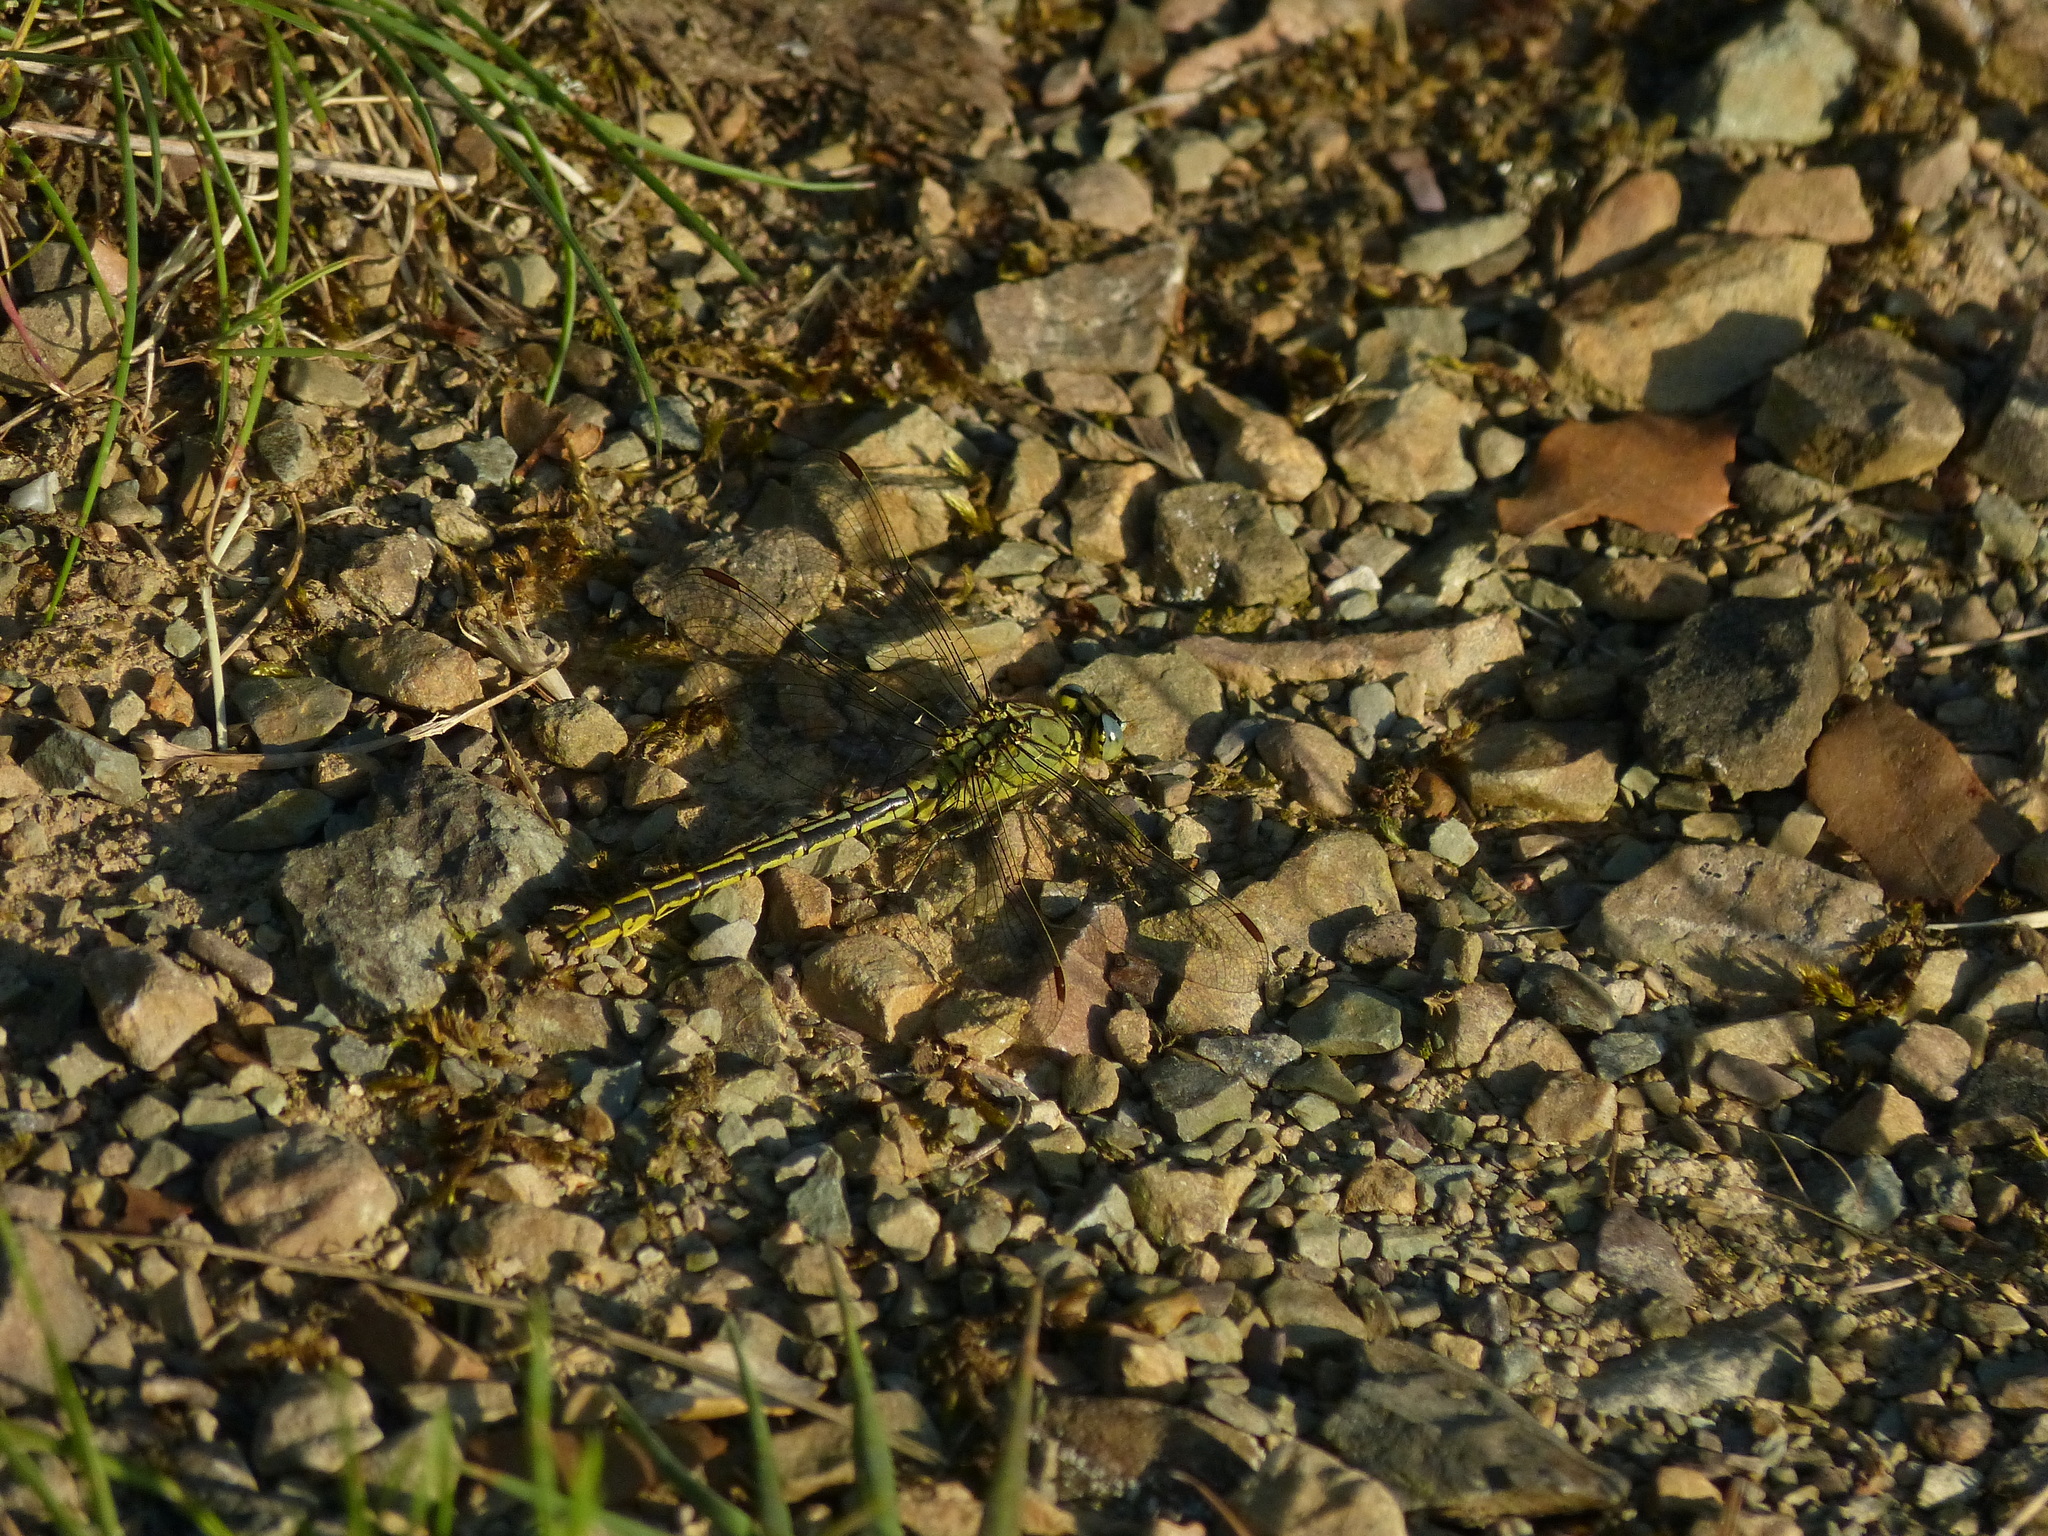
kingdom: Animalia
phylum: Arthropoda
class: Insecta
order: Odonata
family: Gomphidae
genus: Gomphus
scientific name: Gomphus pulchellus
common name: Western clubtail
